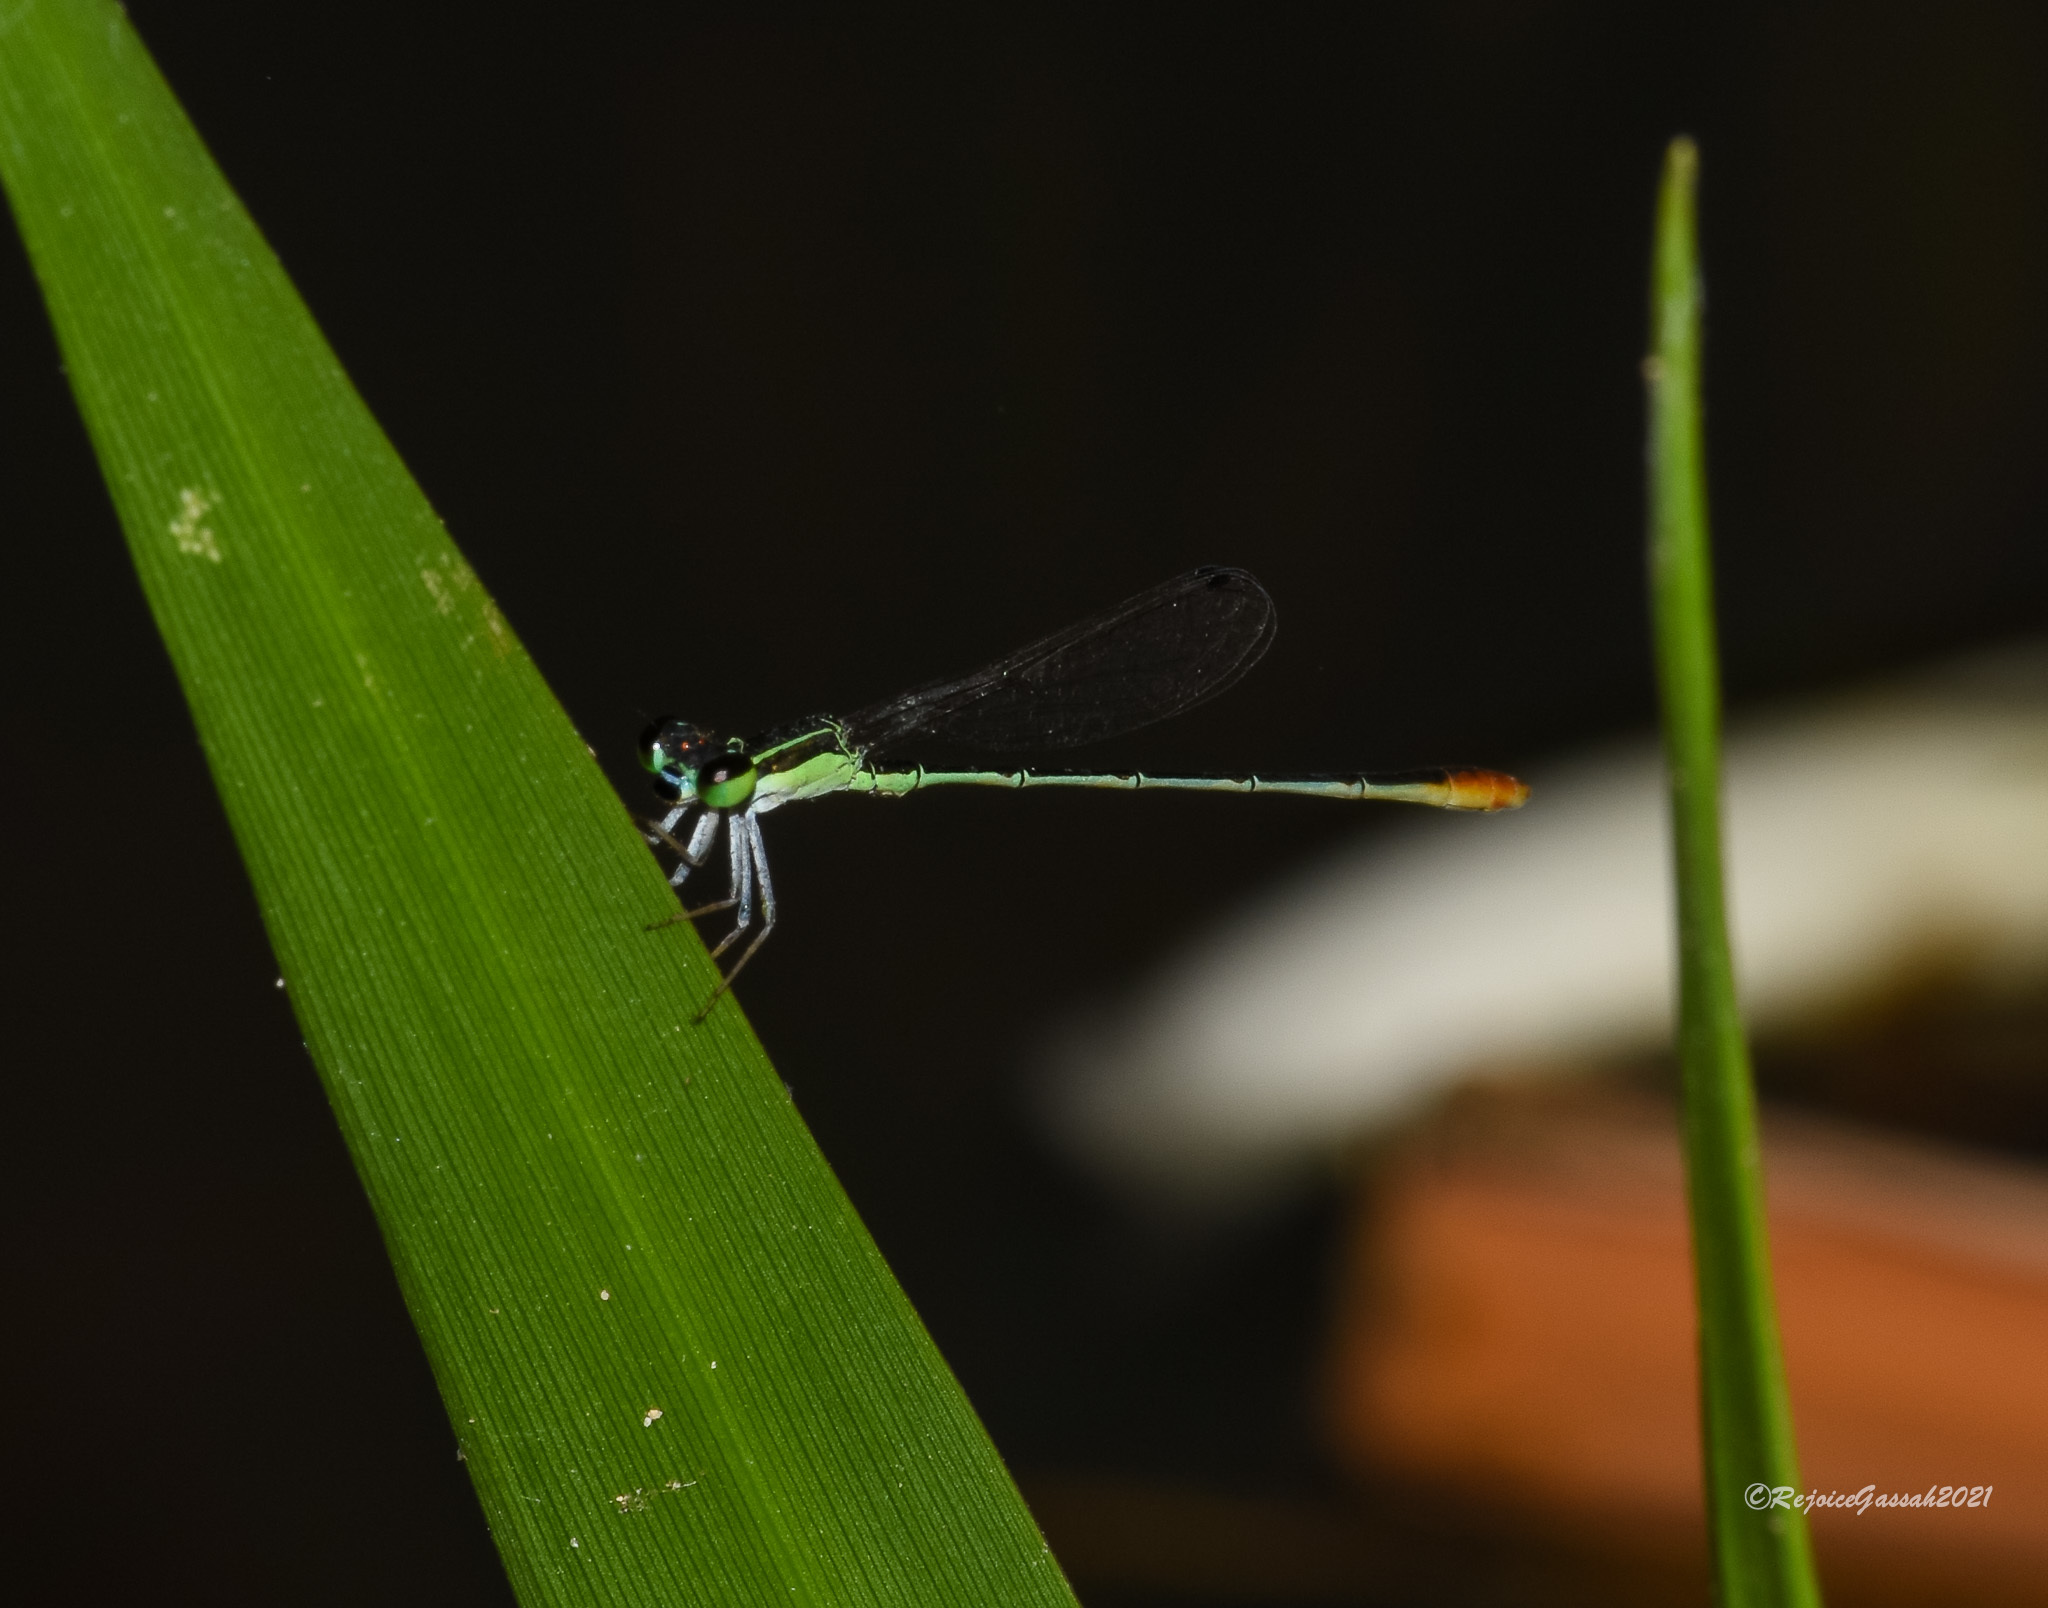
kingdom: Animalia
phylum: Arthropoda
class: Insecta
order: Odonata
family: Coenagrionidae
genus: Agriocnemis
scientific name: Agriocnemis pygmaea
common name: Pygmy wisp
